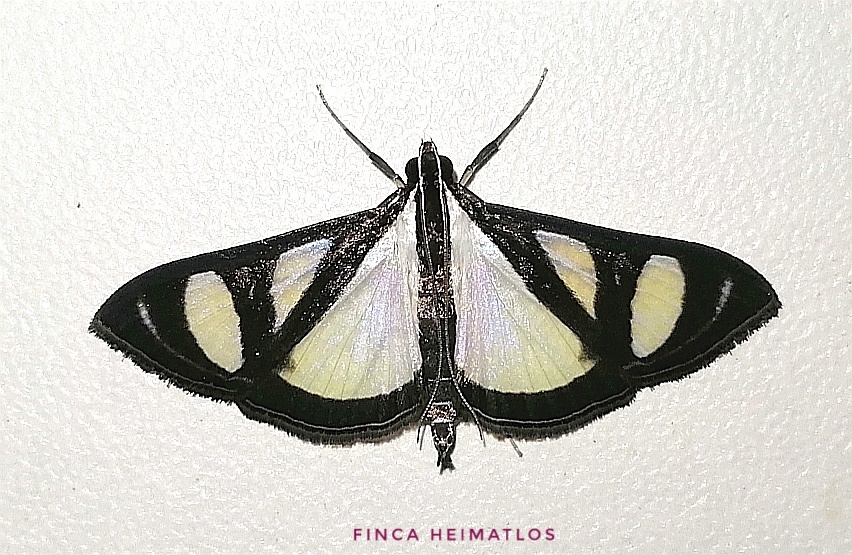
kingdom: Animalia
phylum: Arthropoda
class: Insecta
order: Lepidoptera
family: Crambidae
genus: Glyphodes
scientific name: Glyphodes confinis
